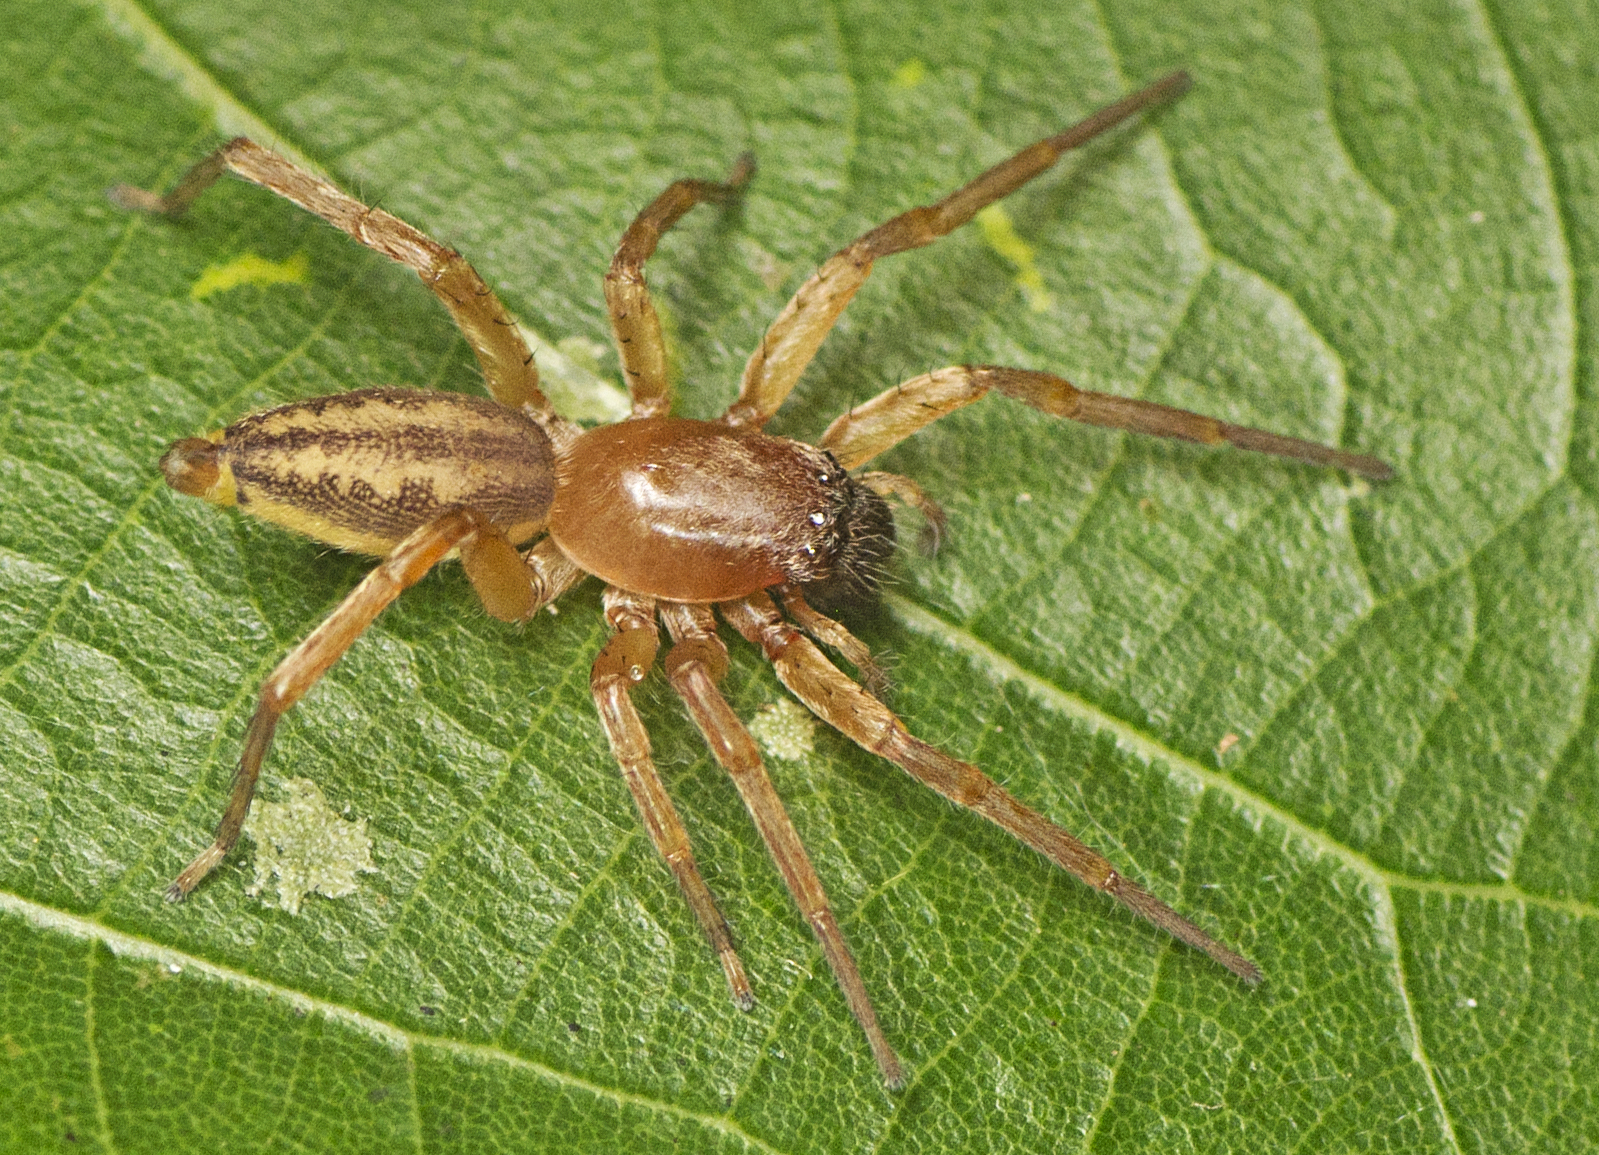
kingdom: Animalia
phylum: Arthropoda
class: Arachnida
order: Araneae
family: Clubionidae
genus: Clubiona
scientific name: Clubiona robusta
